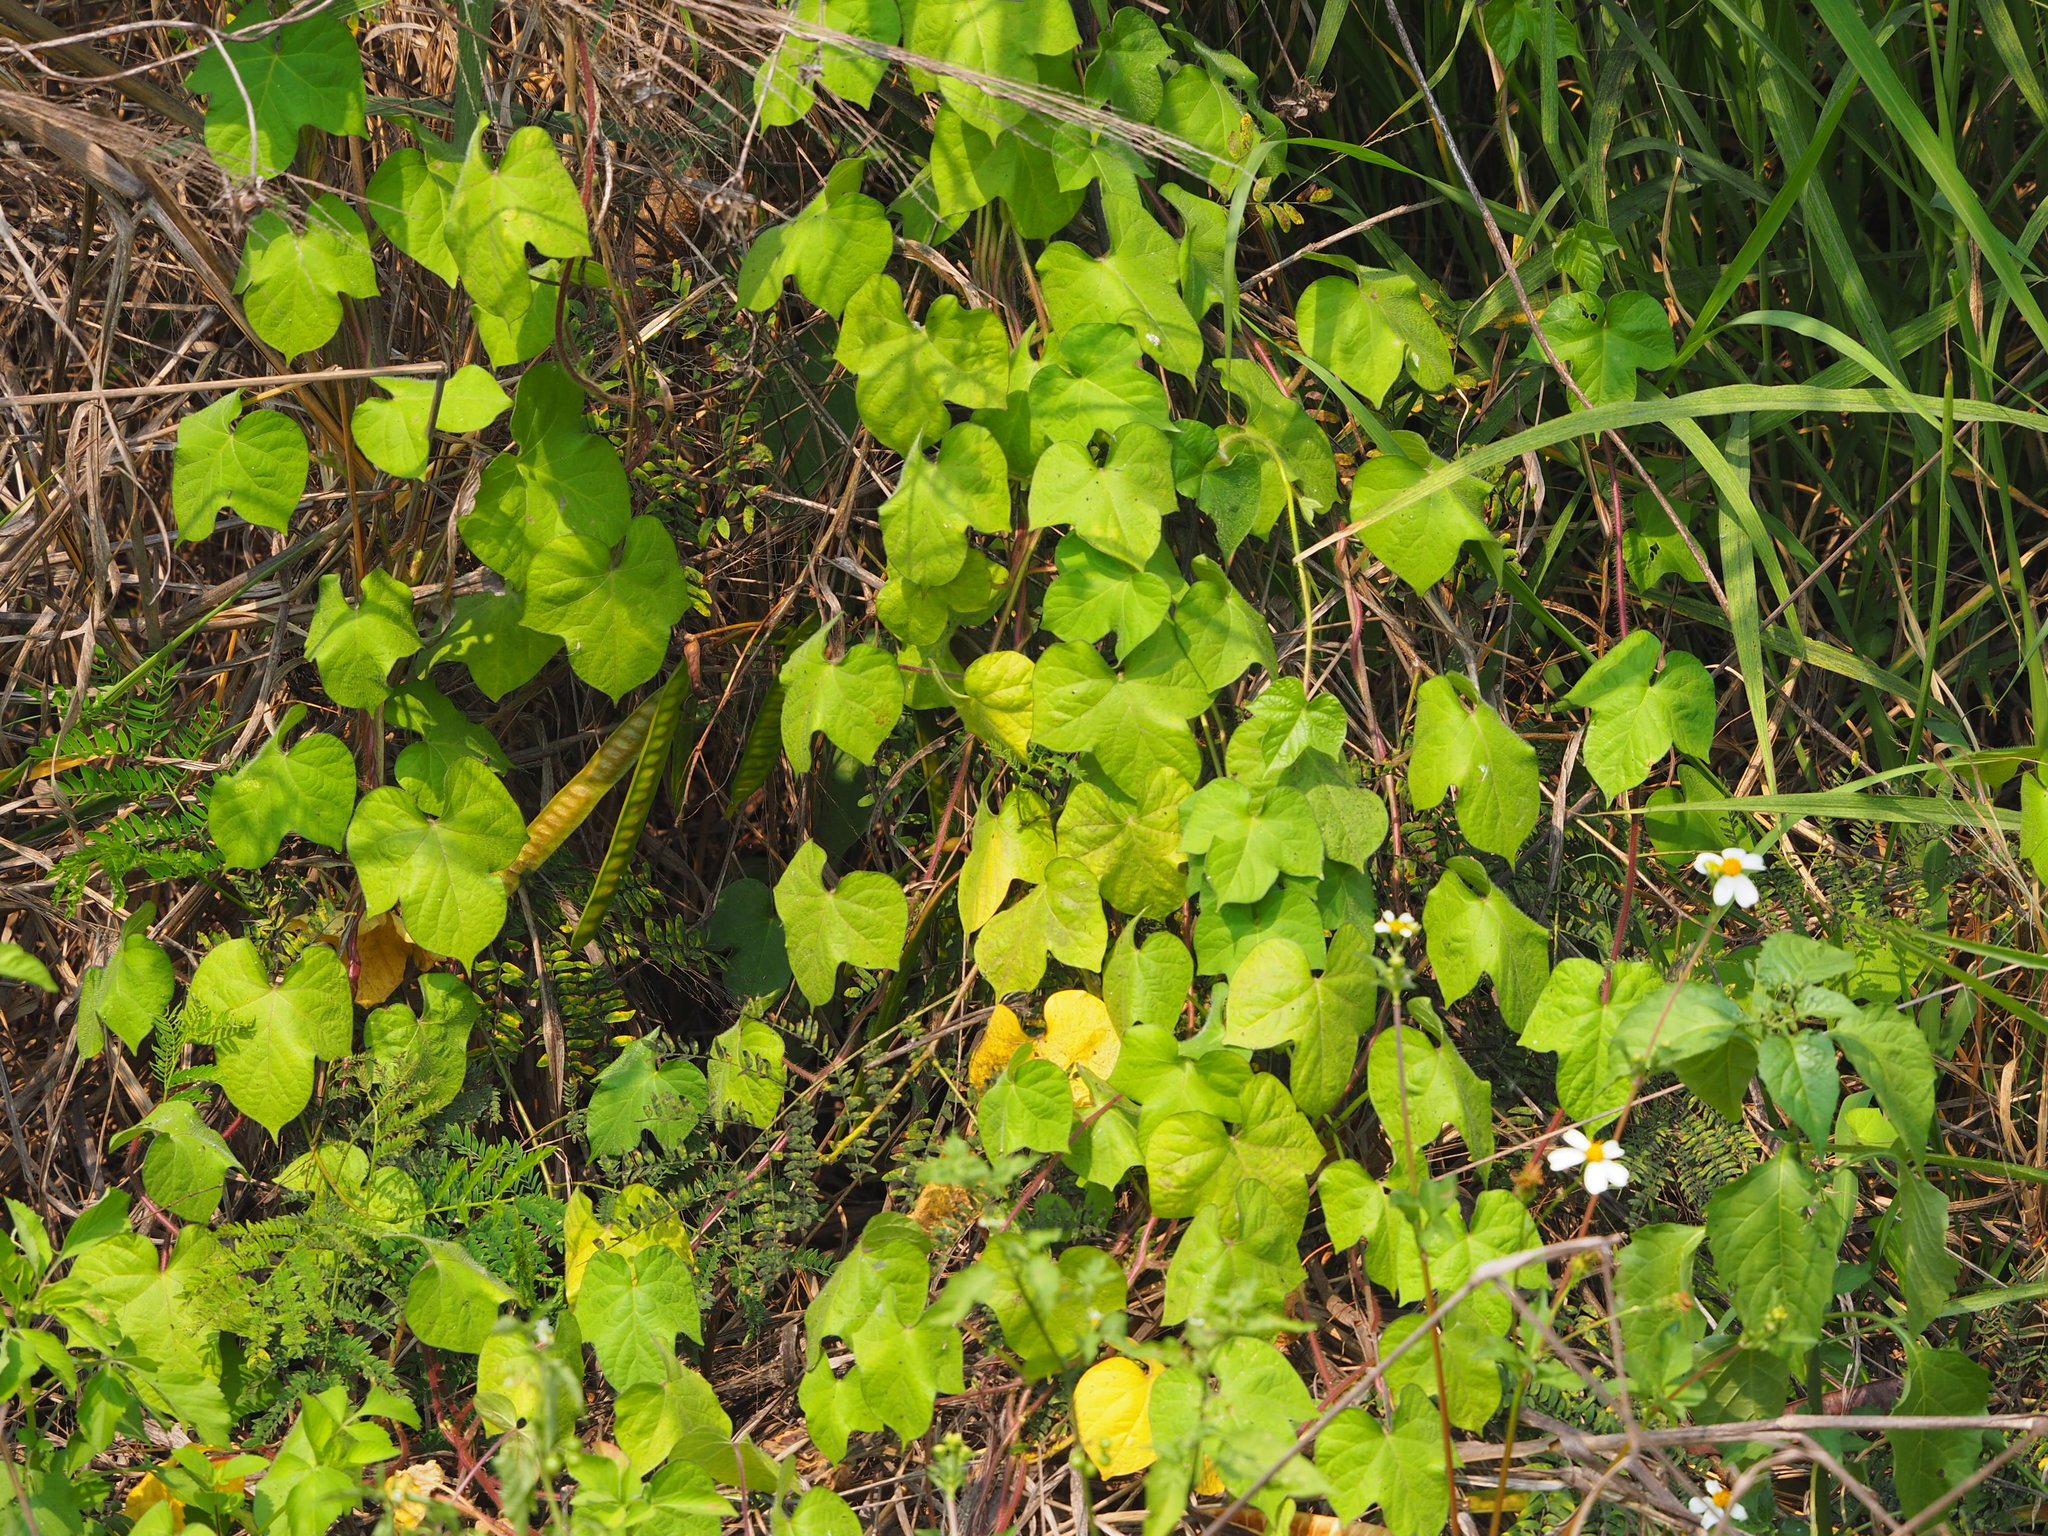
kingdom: Plantae
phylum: Tracheophyta
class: Magnoliopsida
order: Malpighiales
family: Passifloraceae
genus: Passiflora
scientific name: Passiflora vesicaria
